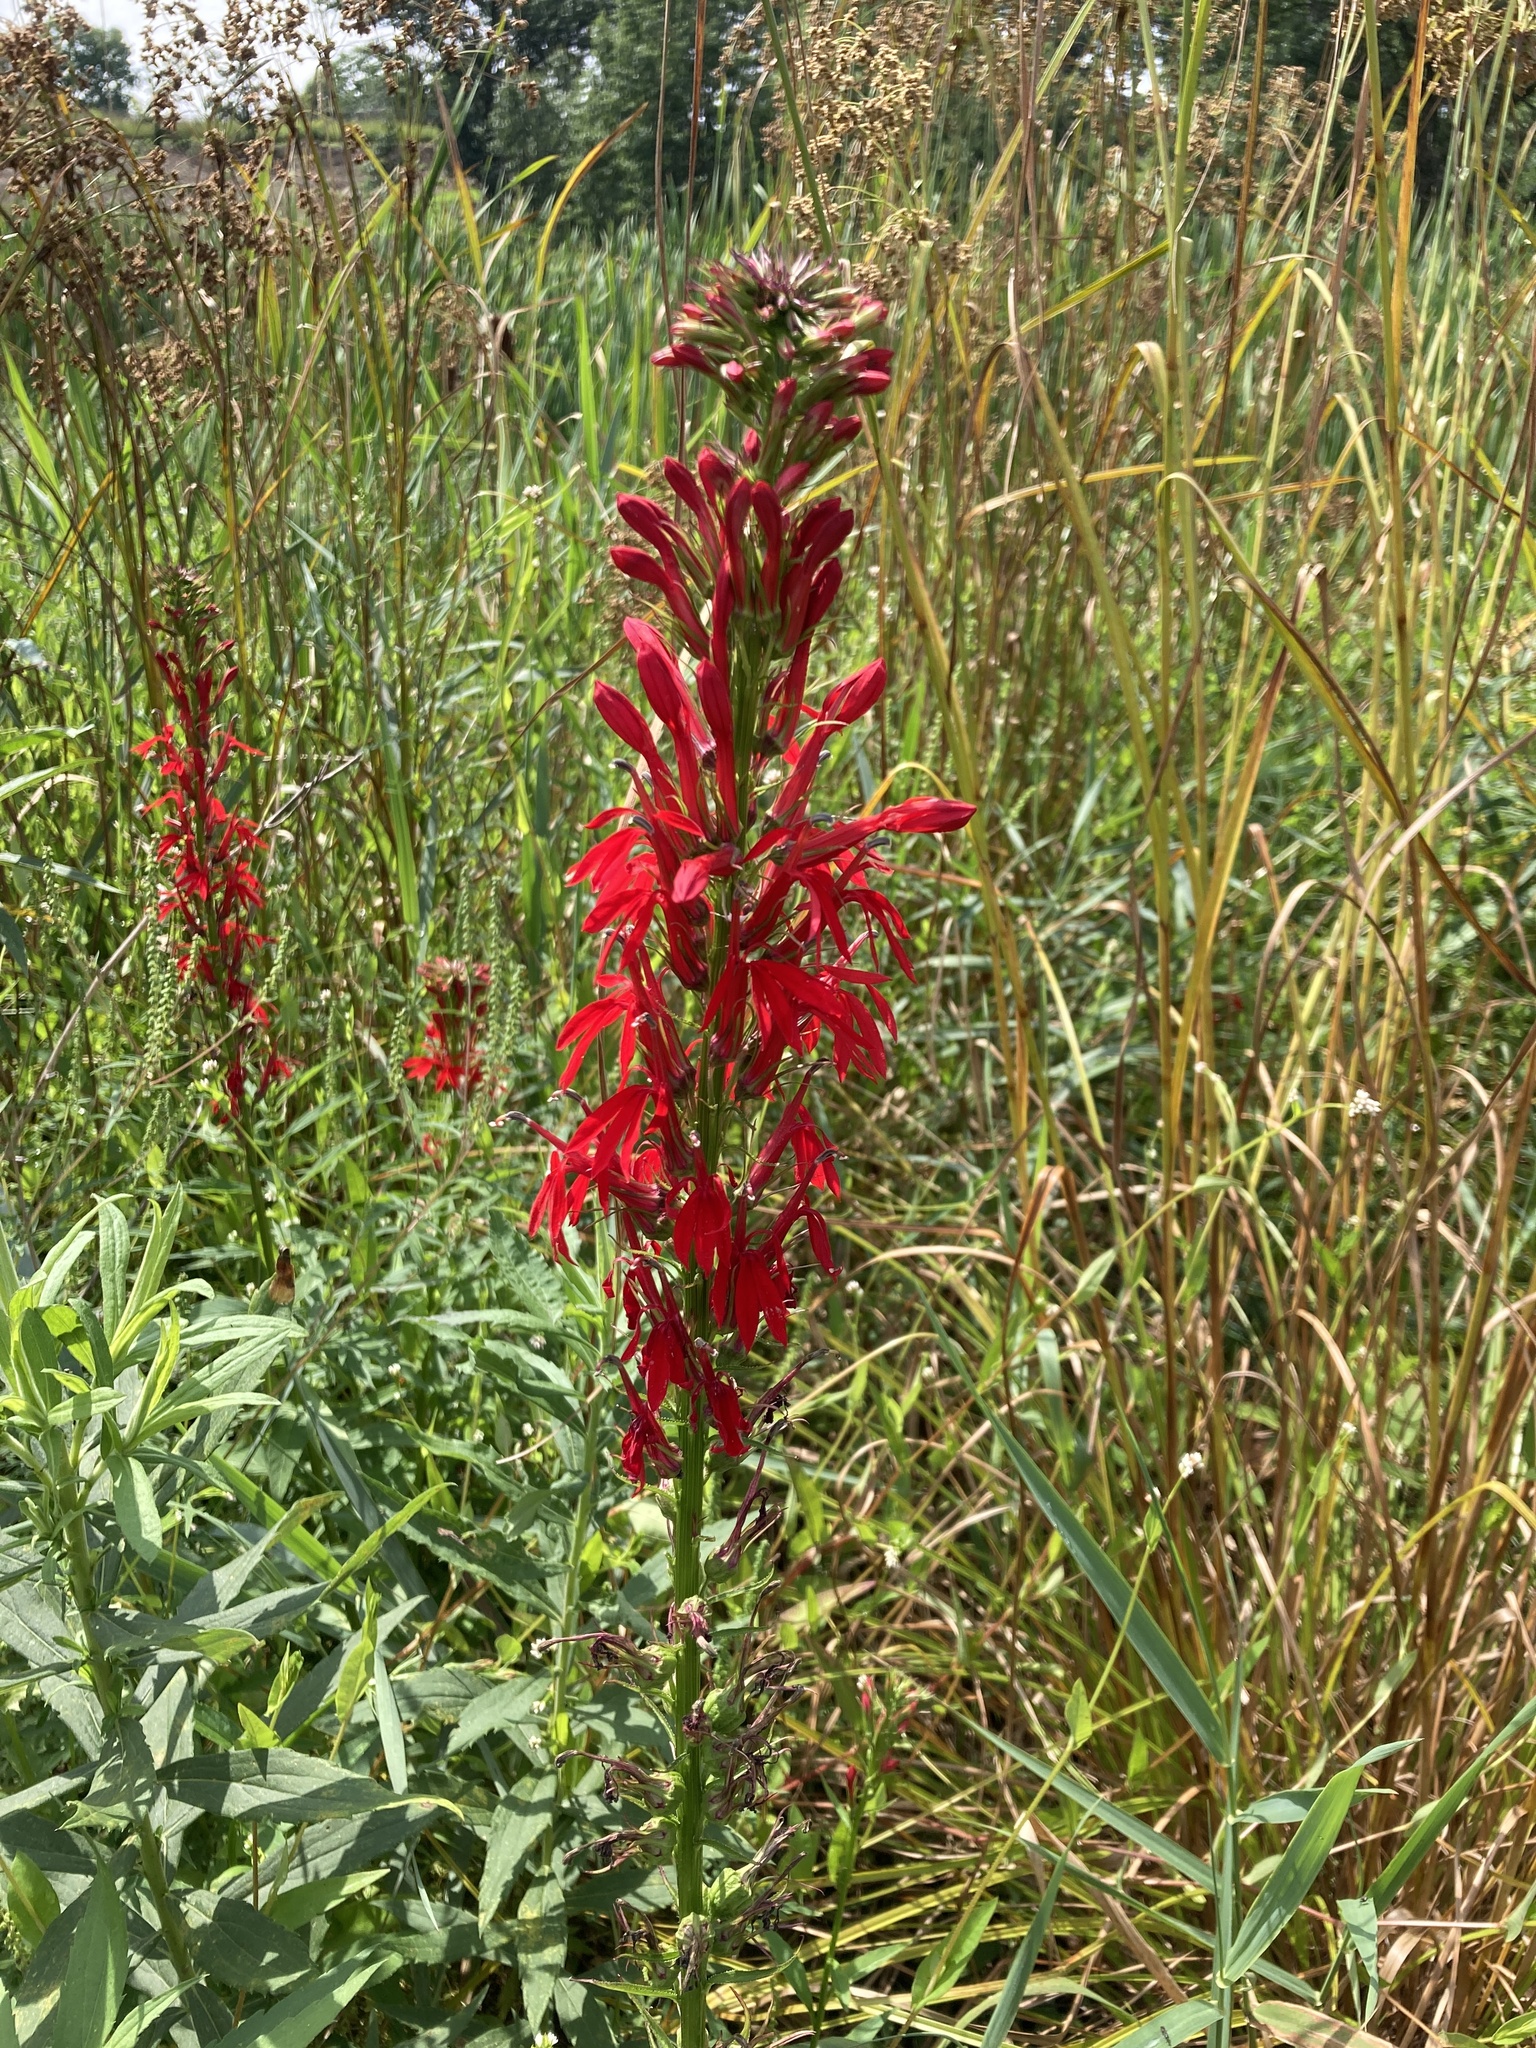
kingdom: Plantae
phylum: Tracheophyta
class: Magnoliopsida
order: Asterales
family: Campanulaceae
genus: Lobelia
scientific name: Lobelia cardinalis
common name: Cardinal flower
